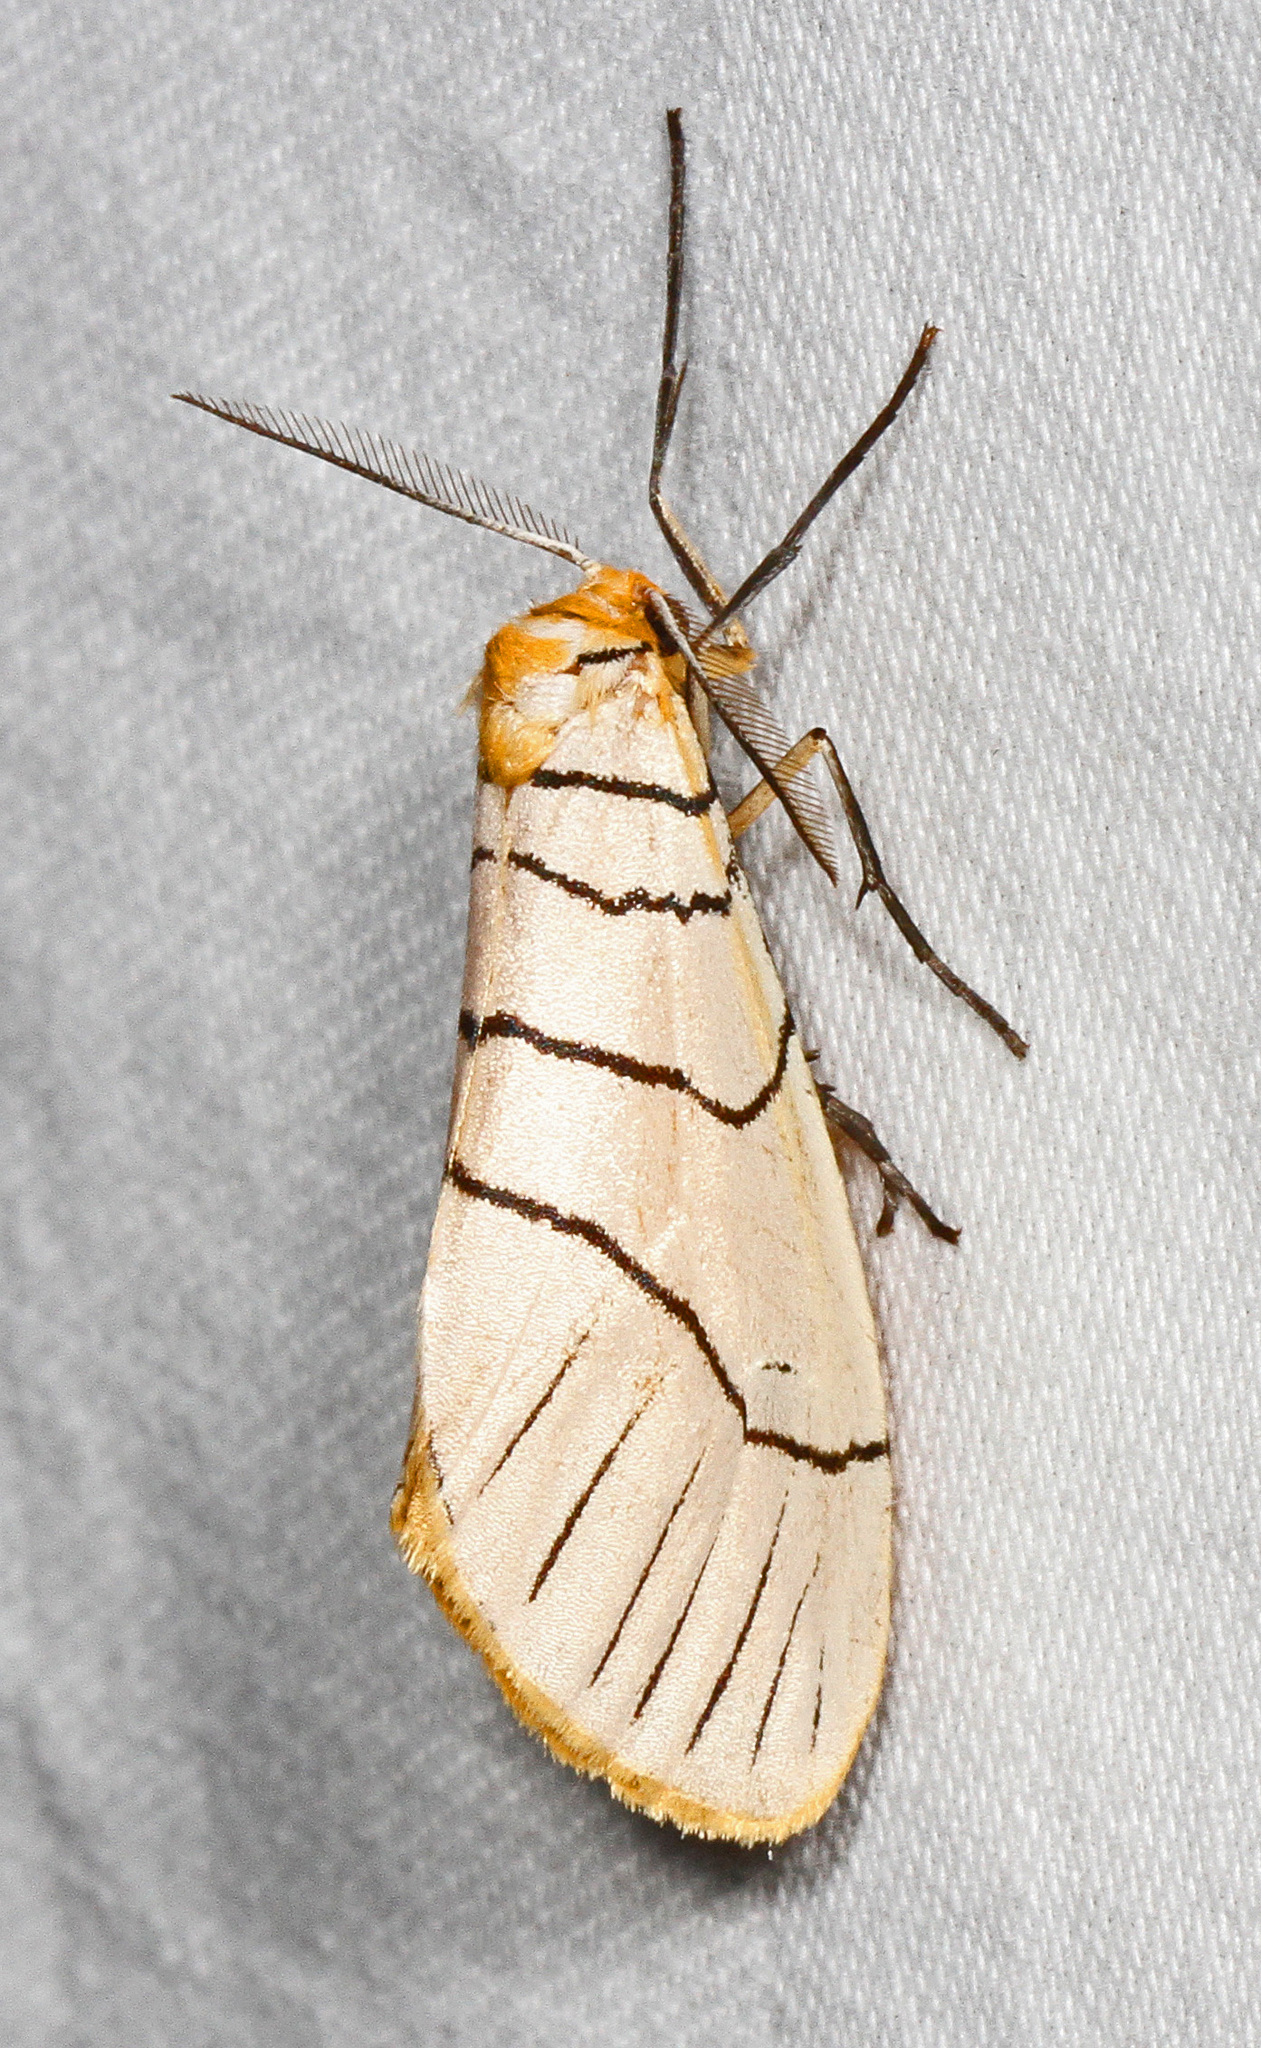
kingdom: Animalia
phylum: Arthropoda
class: Insecta
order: Lepidoptera
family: Doidae
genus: Leuculodes
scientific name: Leuculodes
